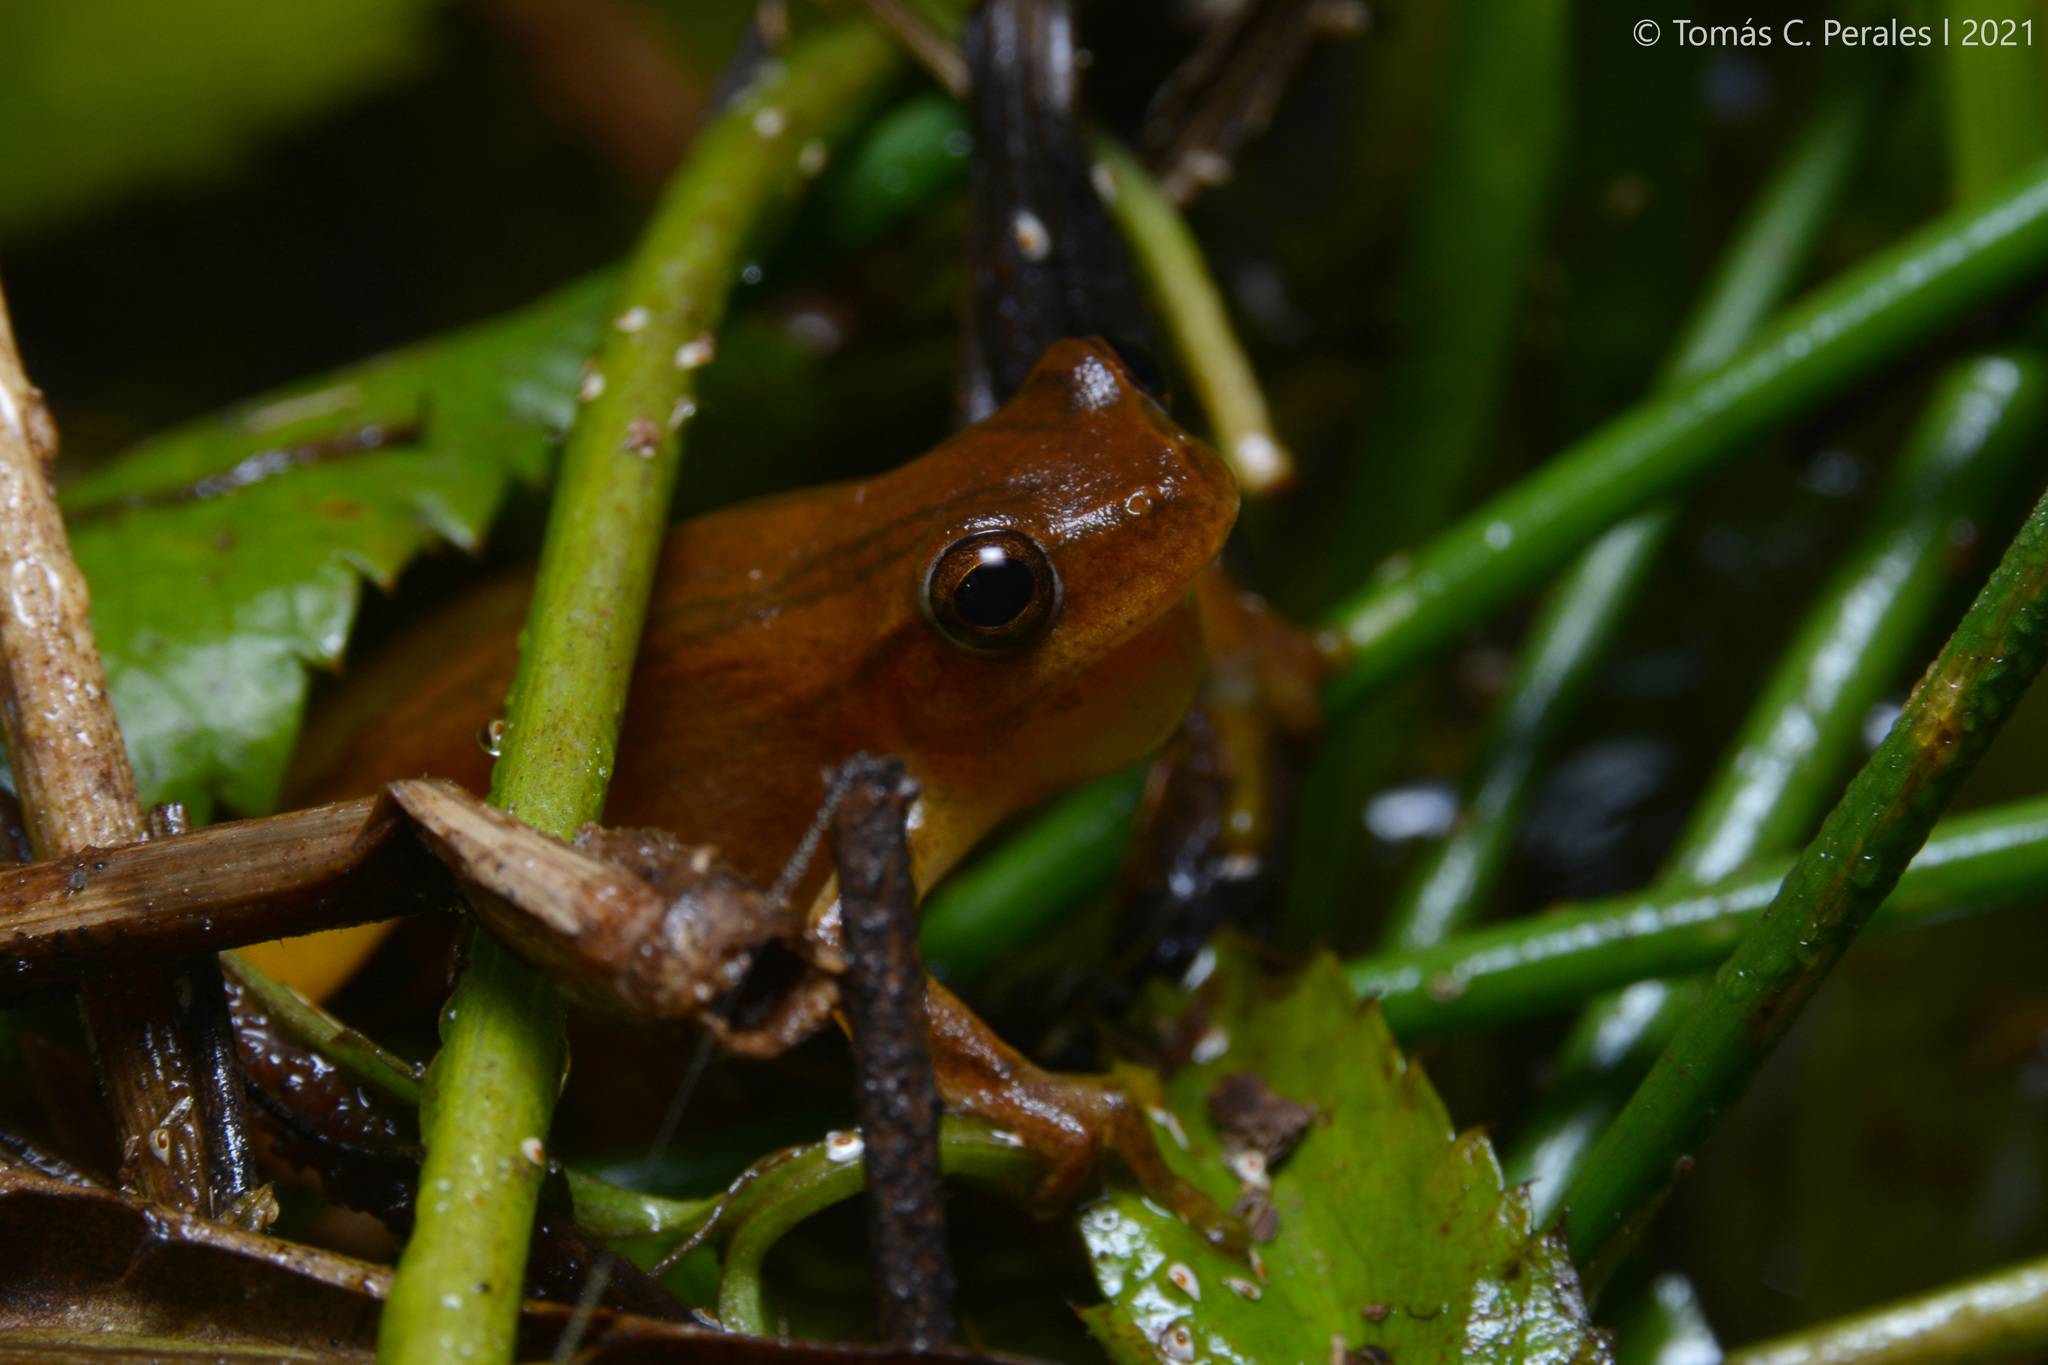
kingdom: Animalia
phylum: Chordata
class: Amphibia
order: Anura
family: Hylidae
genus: Dendropsophus
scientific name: Dendropsophus
